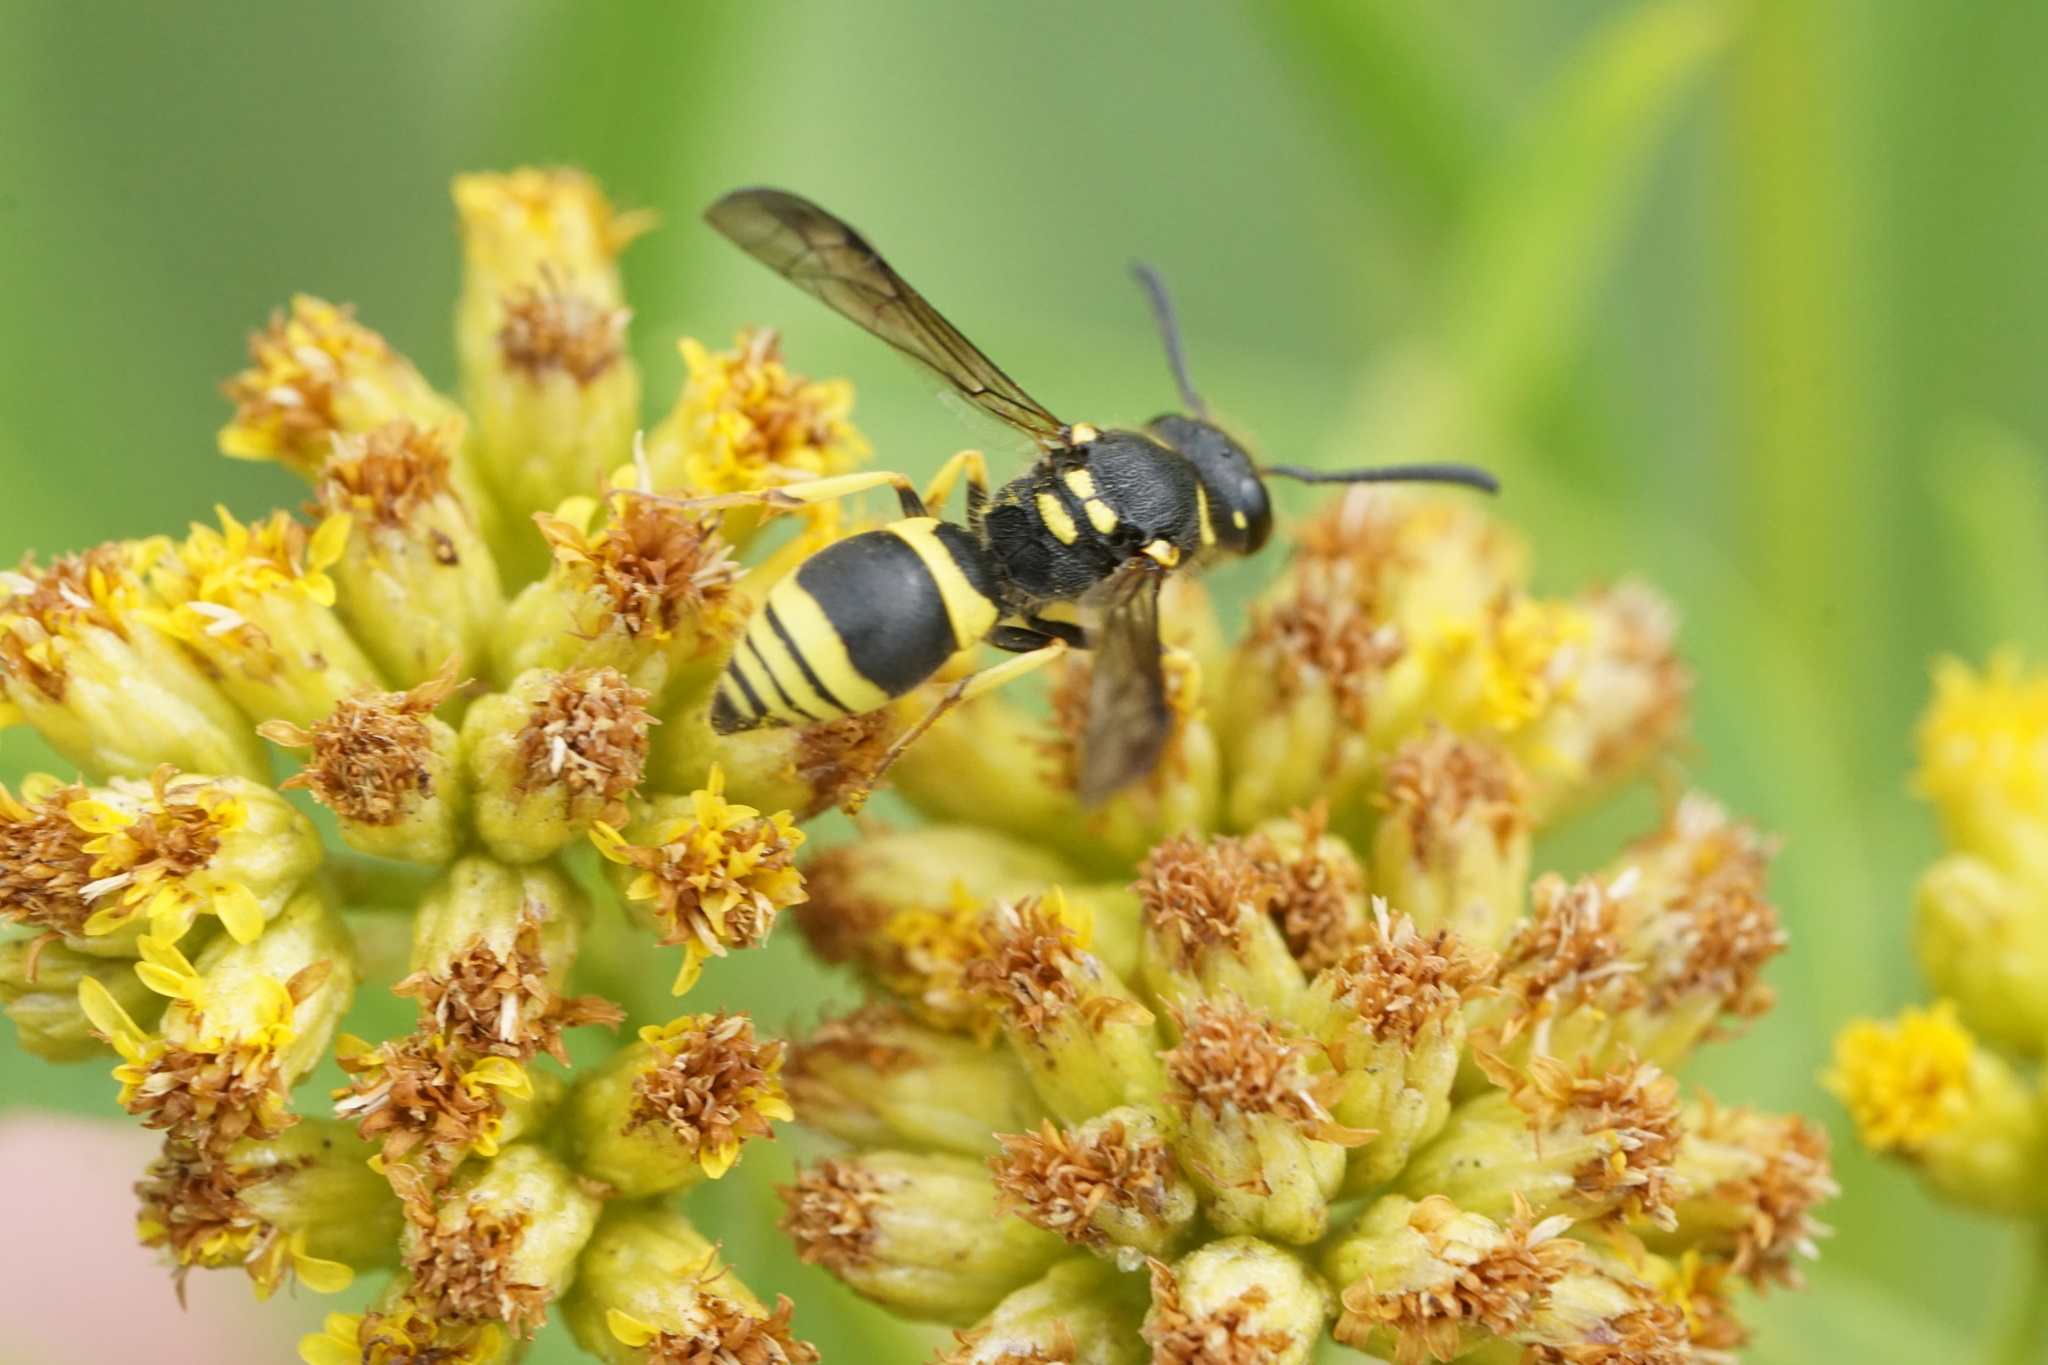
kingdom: Animalia
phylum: Arthropoda
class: Insecta
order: Hymenoptera
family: Vespidae
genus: Ancistrocerus
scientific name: Ancistrocerus gazella
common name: European tube wasp
